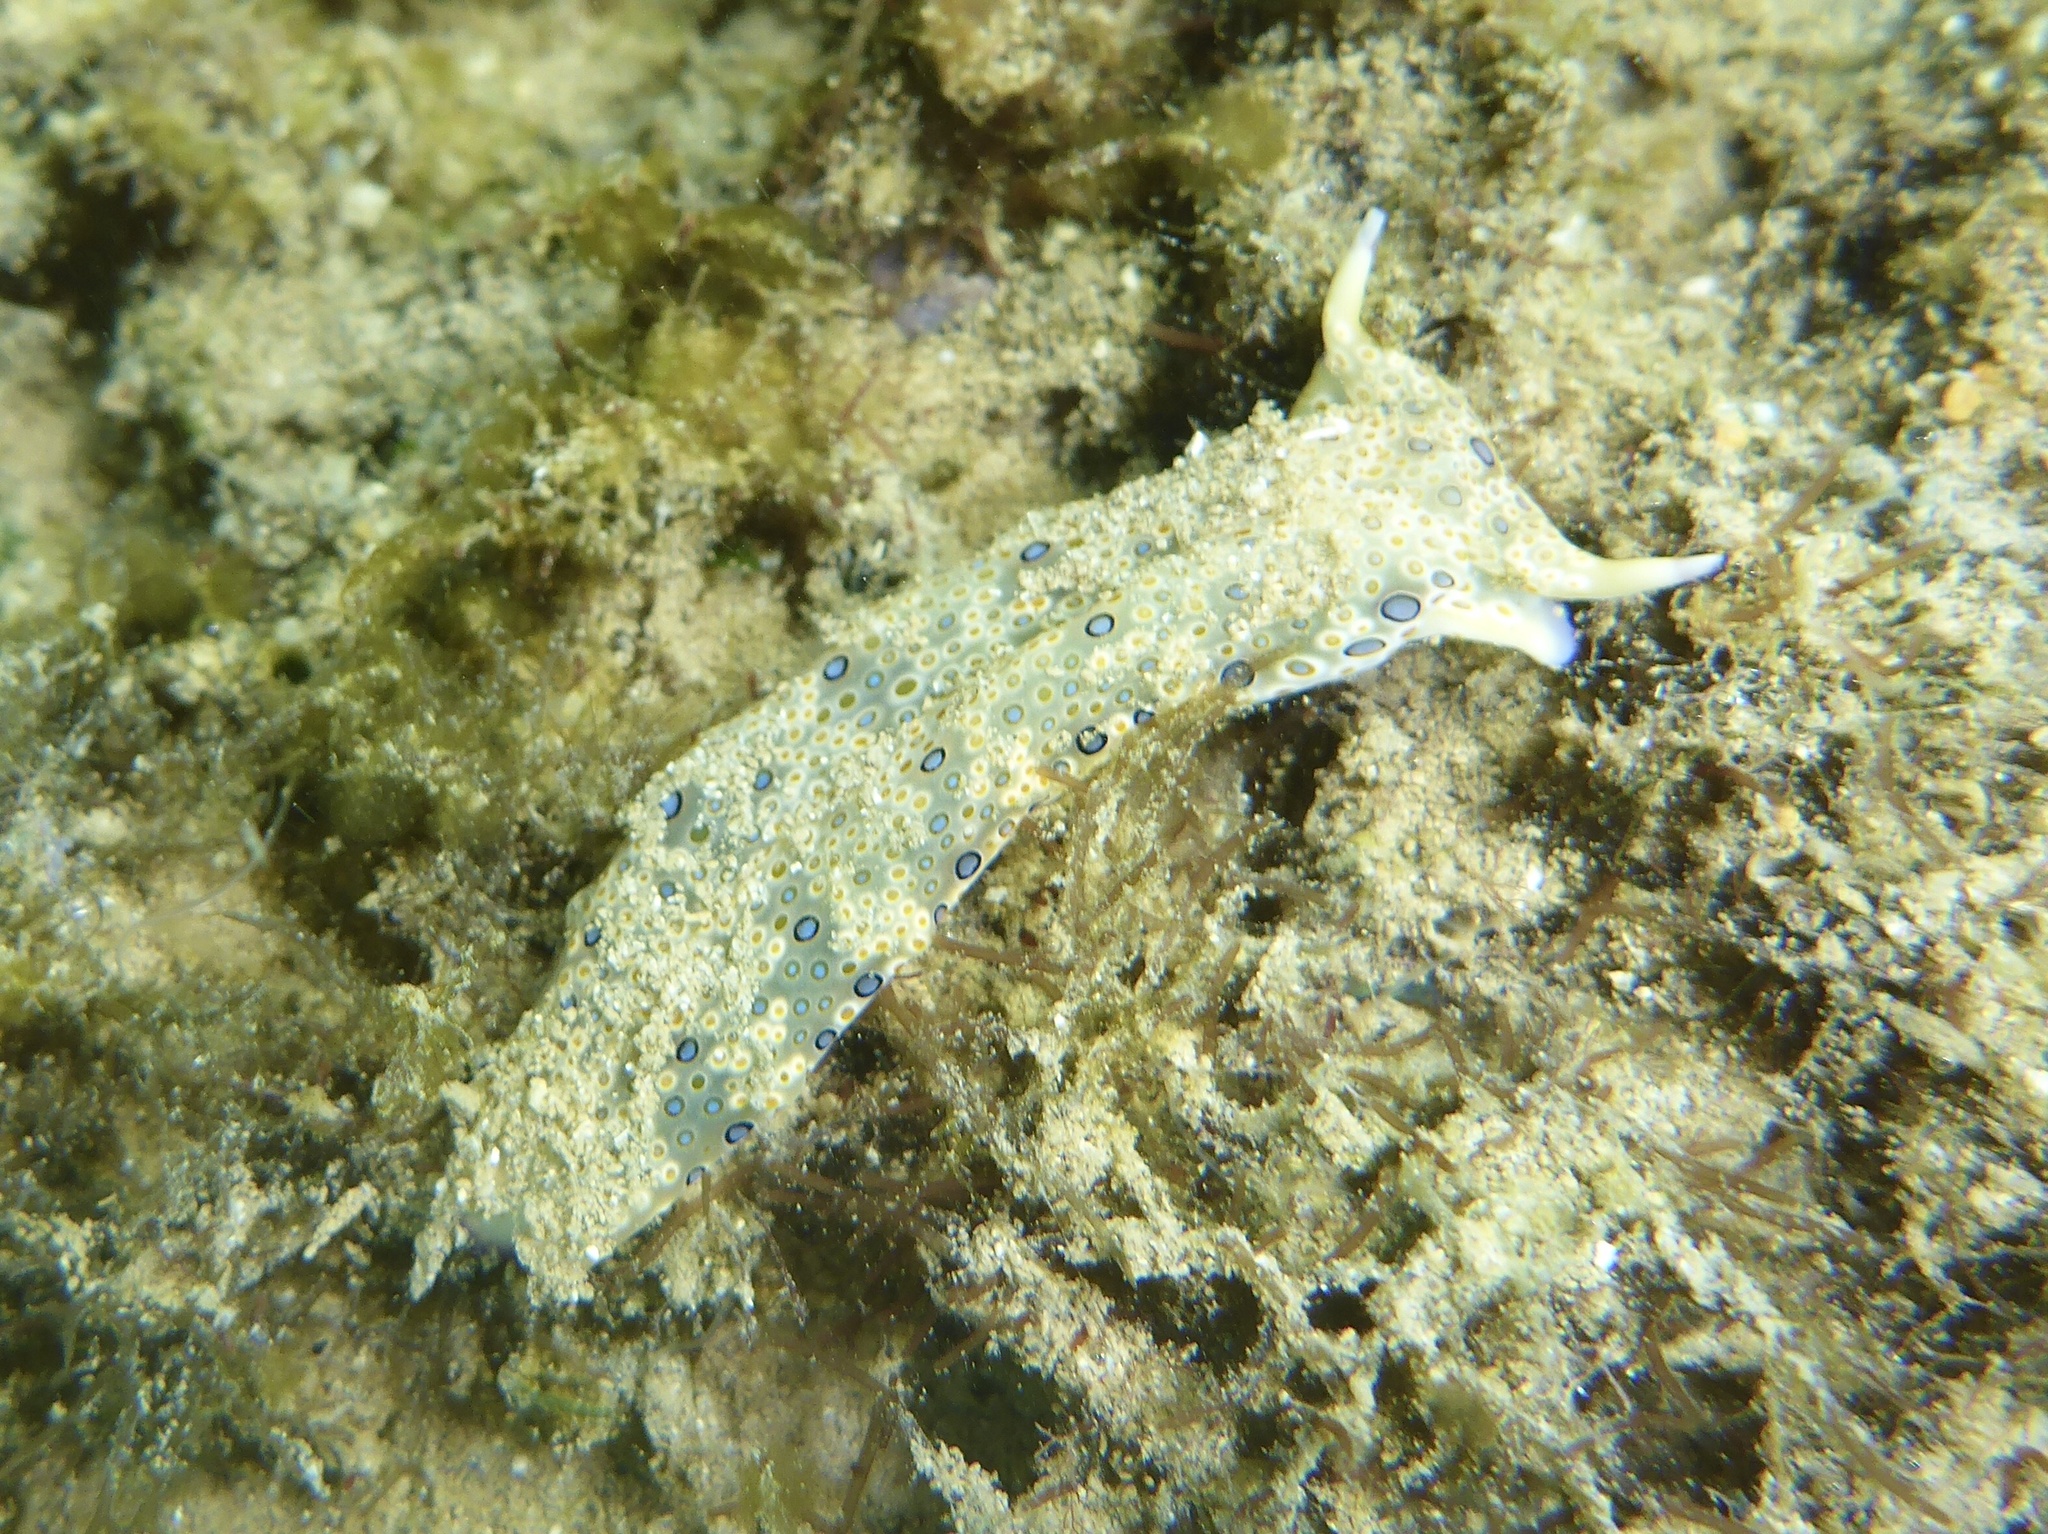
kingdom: Animalia
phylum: Mollusca
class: Gastropoda
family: Plakobranchidae
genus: Plakobranchus
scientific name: Plakobranchus ocellatus
